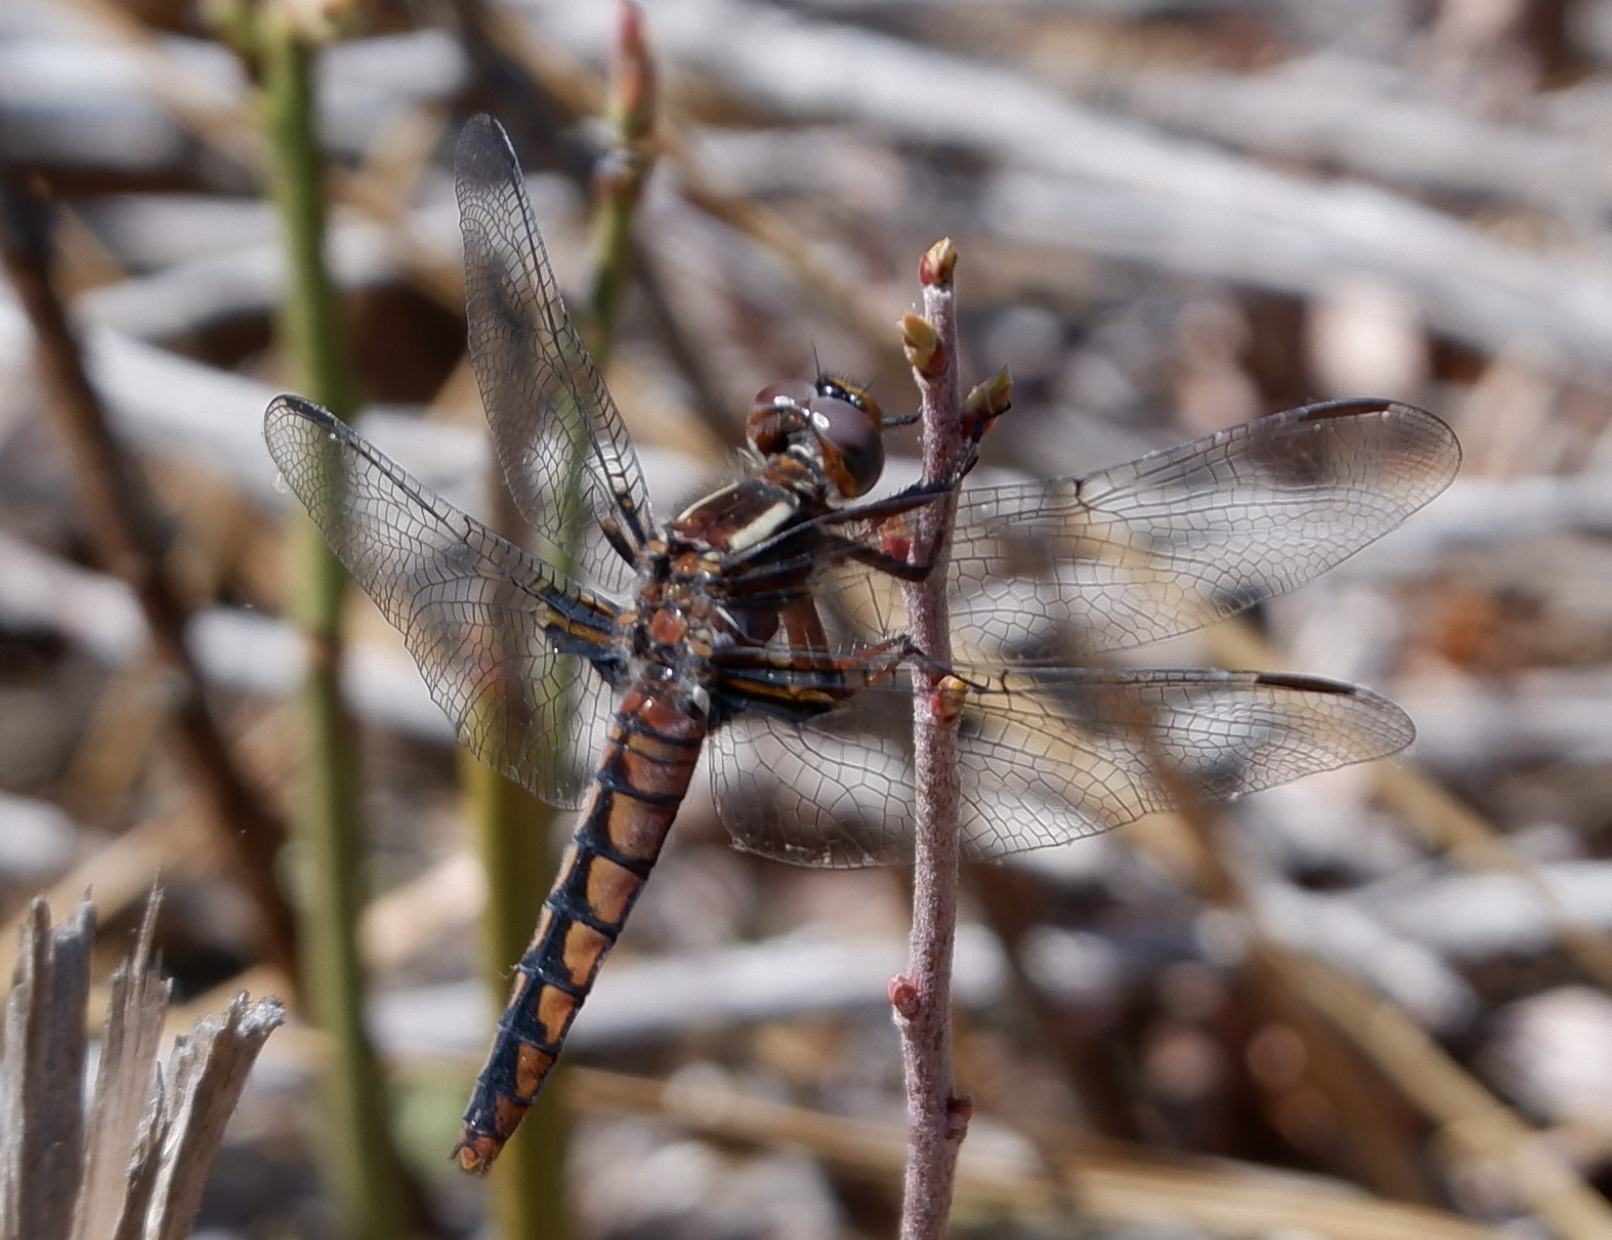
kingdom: Animalia
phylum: Arthropoda
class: Insecta
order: Odonata
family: Libellulidae
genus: Ladona
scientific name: Ladona deplanata
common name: Blue corporal
